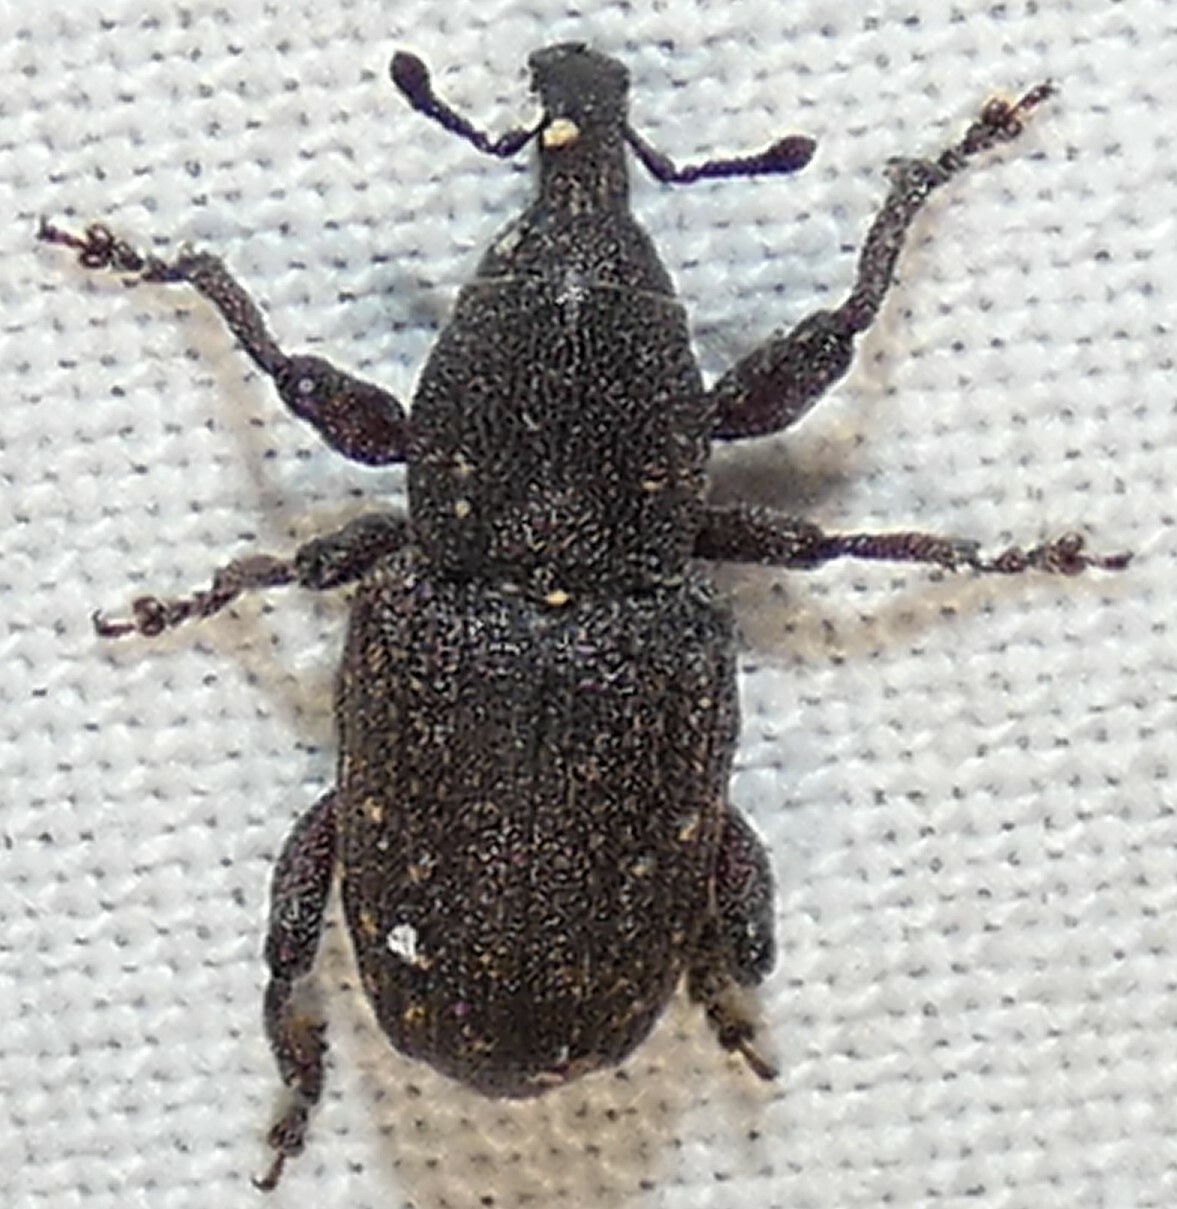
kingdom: Animalia
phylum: Arthropoda
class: Insecta
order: Coleoptera
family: Curculionidae
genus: Pachylobius
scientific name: Pachylobius picivorus
